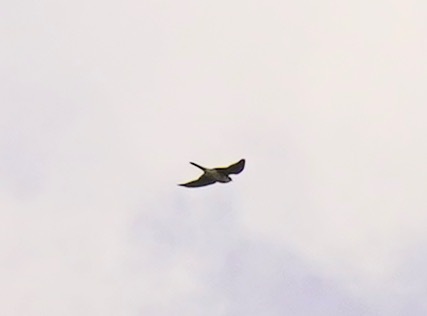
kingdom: Animalia
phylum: Chordata
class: Aves
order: Falconiformes
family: Falconidae
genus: Falco
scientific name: Falco sparverius
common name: American kestrel
